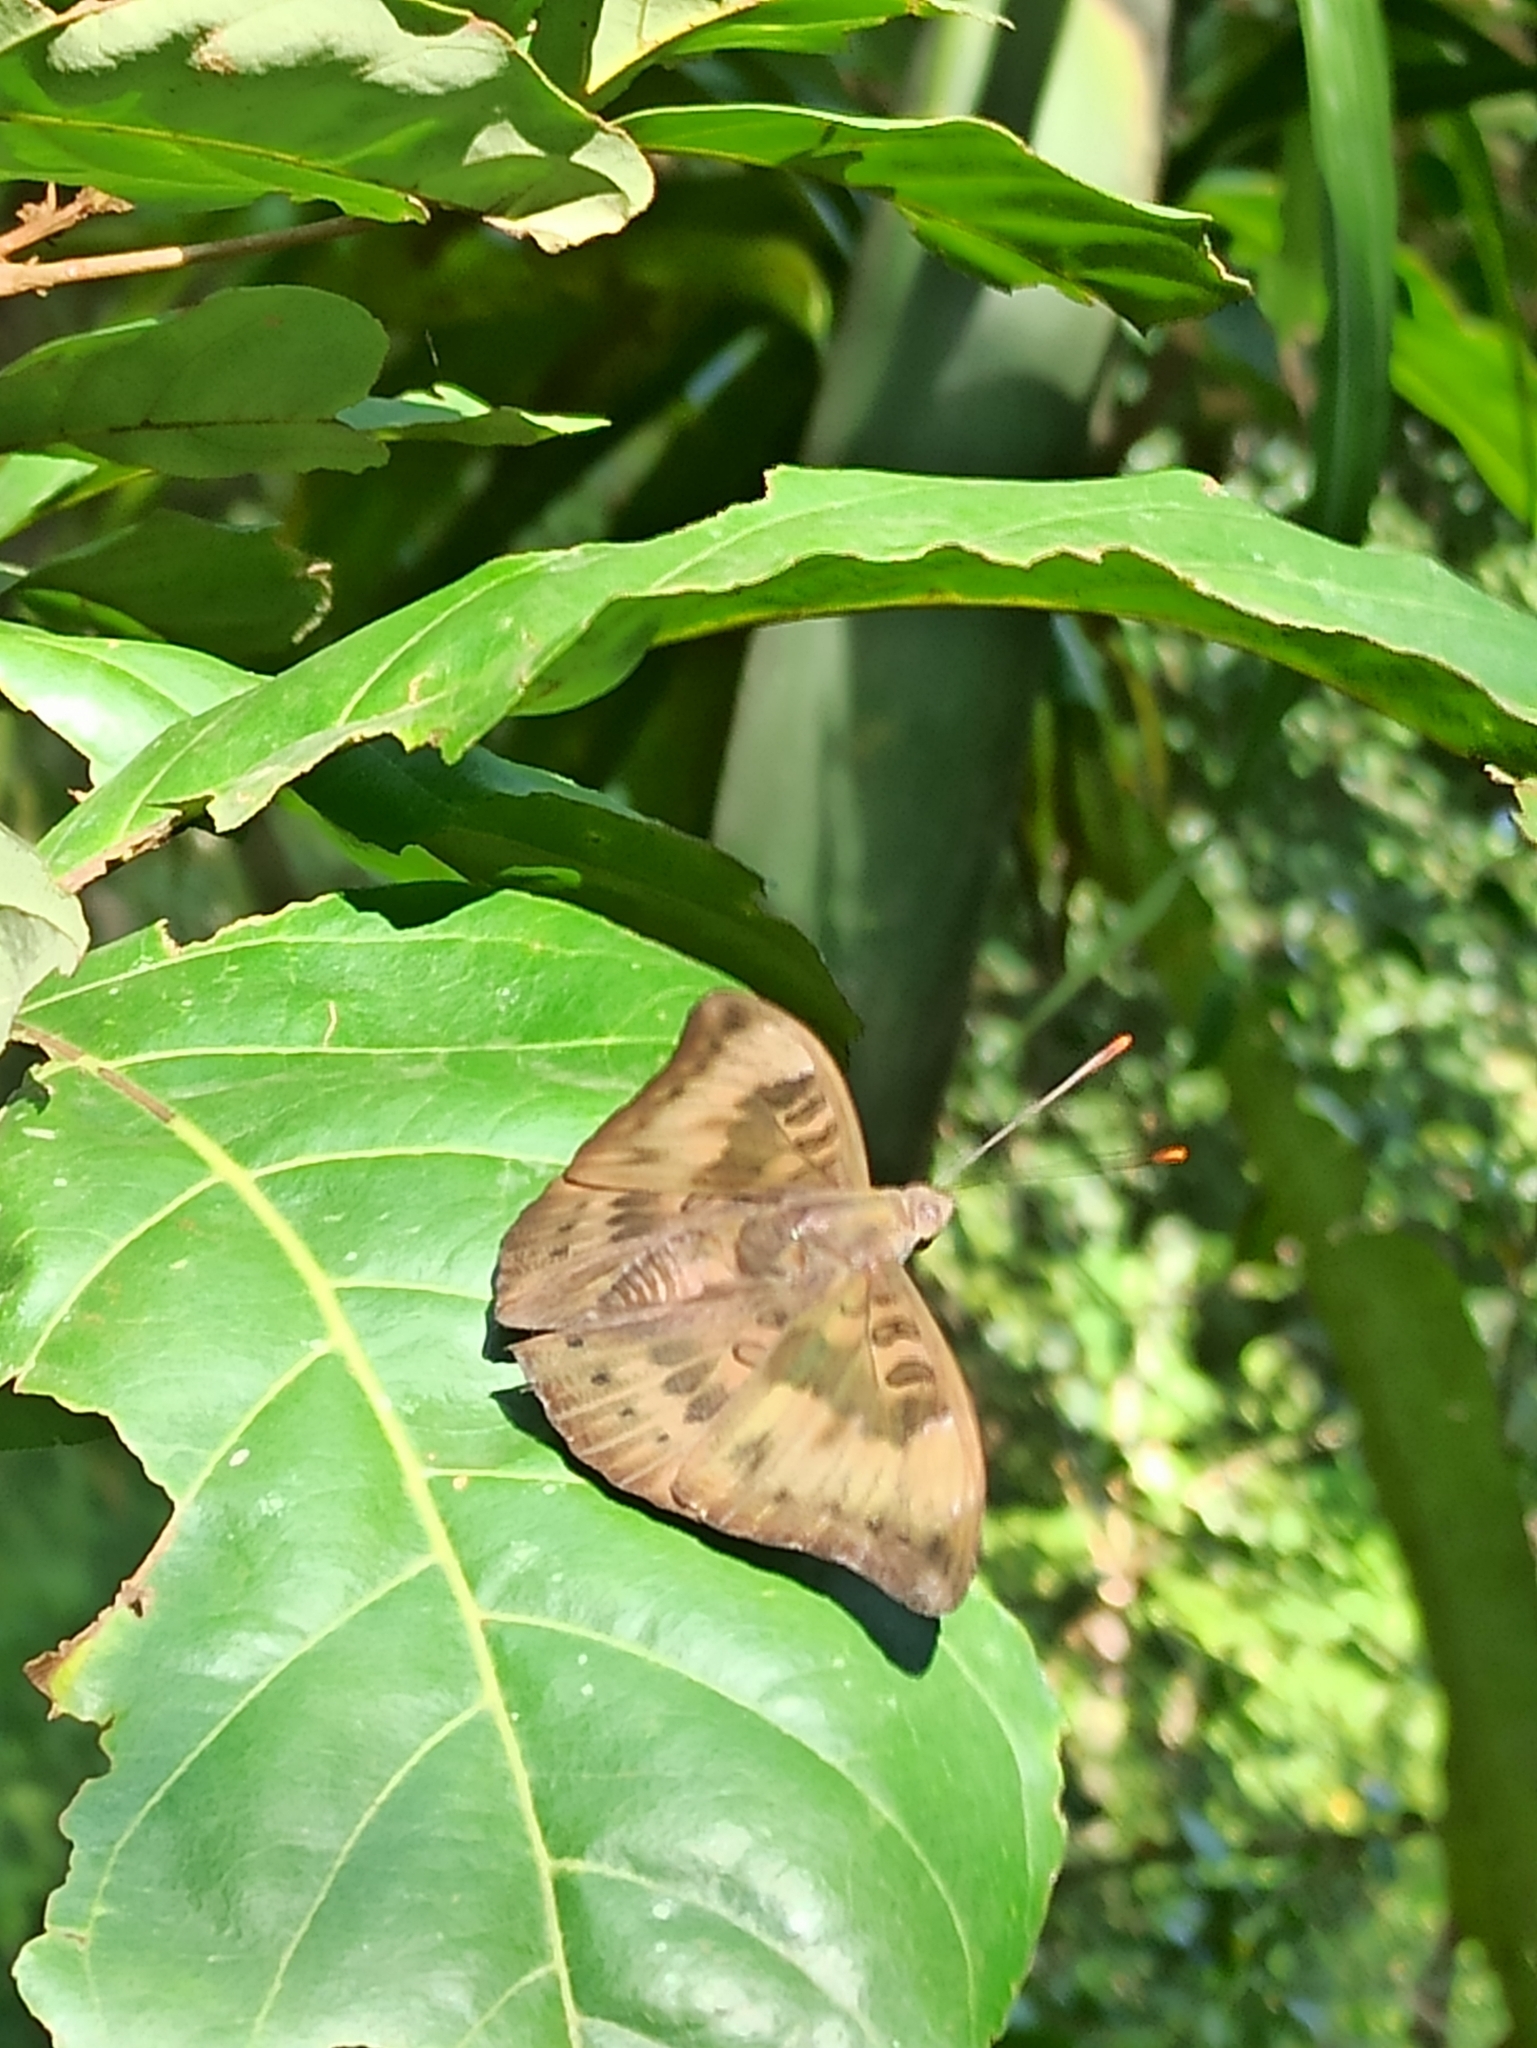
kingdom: Animalia
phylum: Arthropoda
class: Insecta
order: Lepidoptera
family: Nymphalidae
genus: Euthalia
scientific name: Euthalia aconthea
